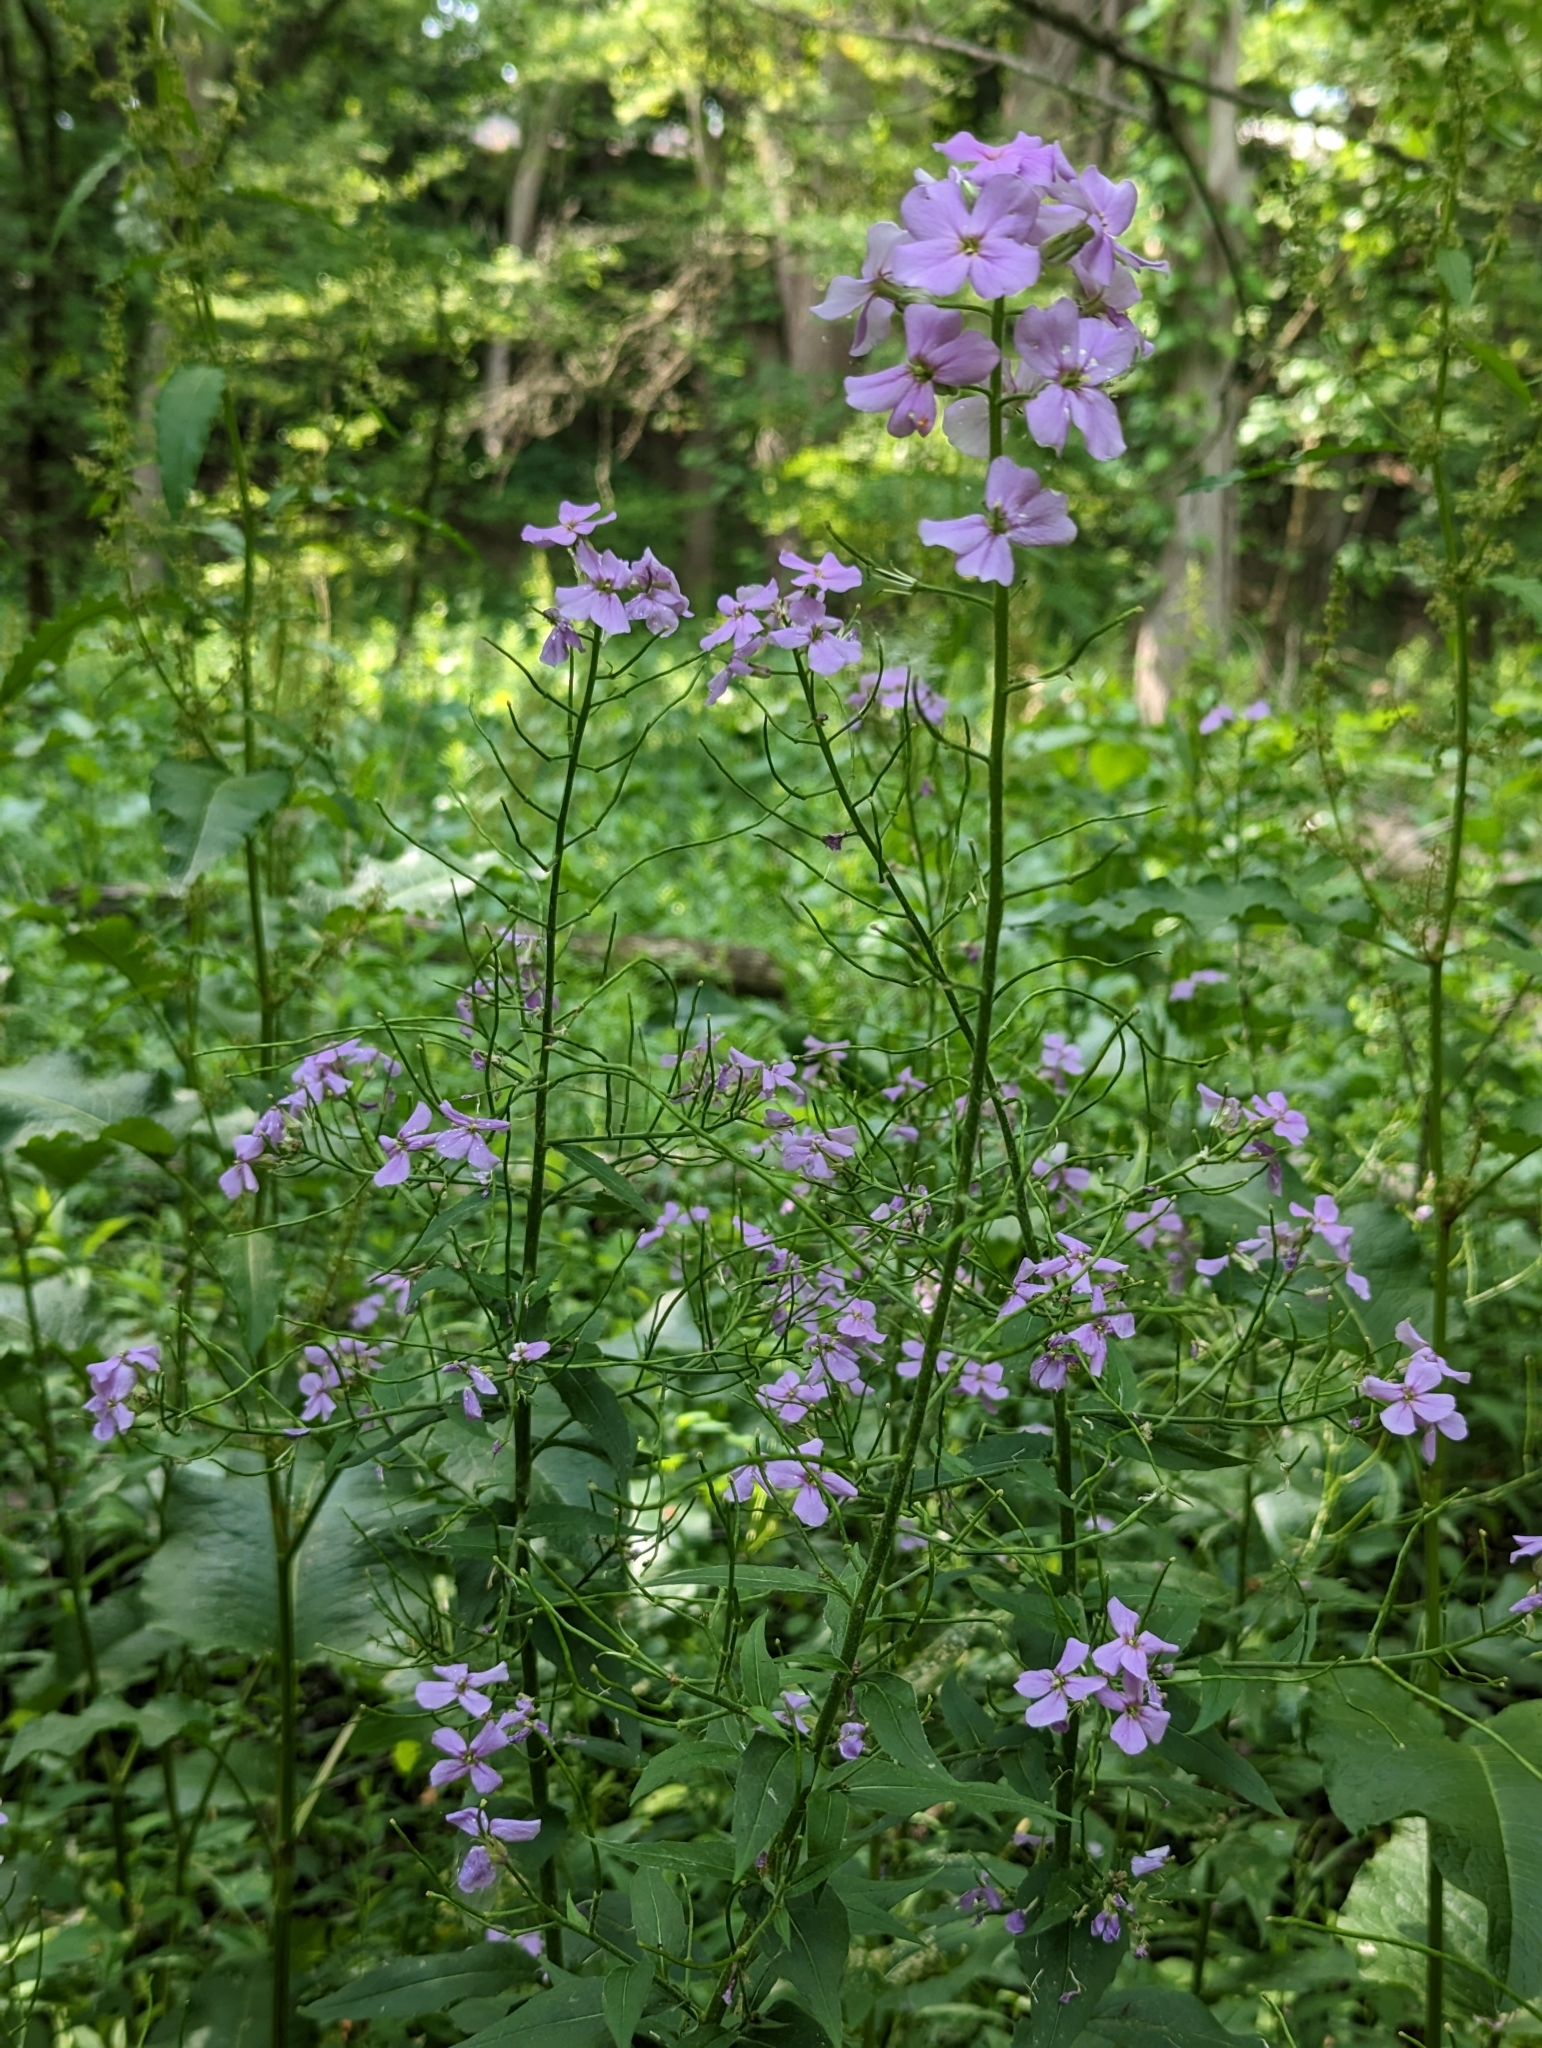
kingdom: Plantae
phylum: Tracheophyta
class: Magnoliopsida
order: Brassicales
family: Brassicaceae
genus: Hesperis
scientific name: Hesperis matronalis
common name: Dame's-violet
